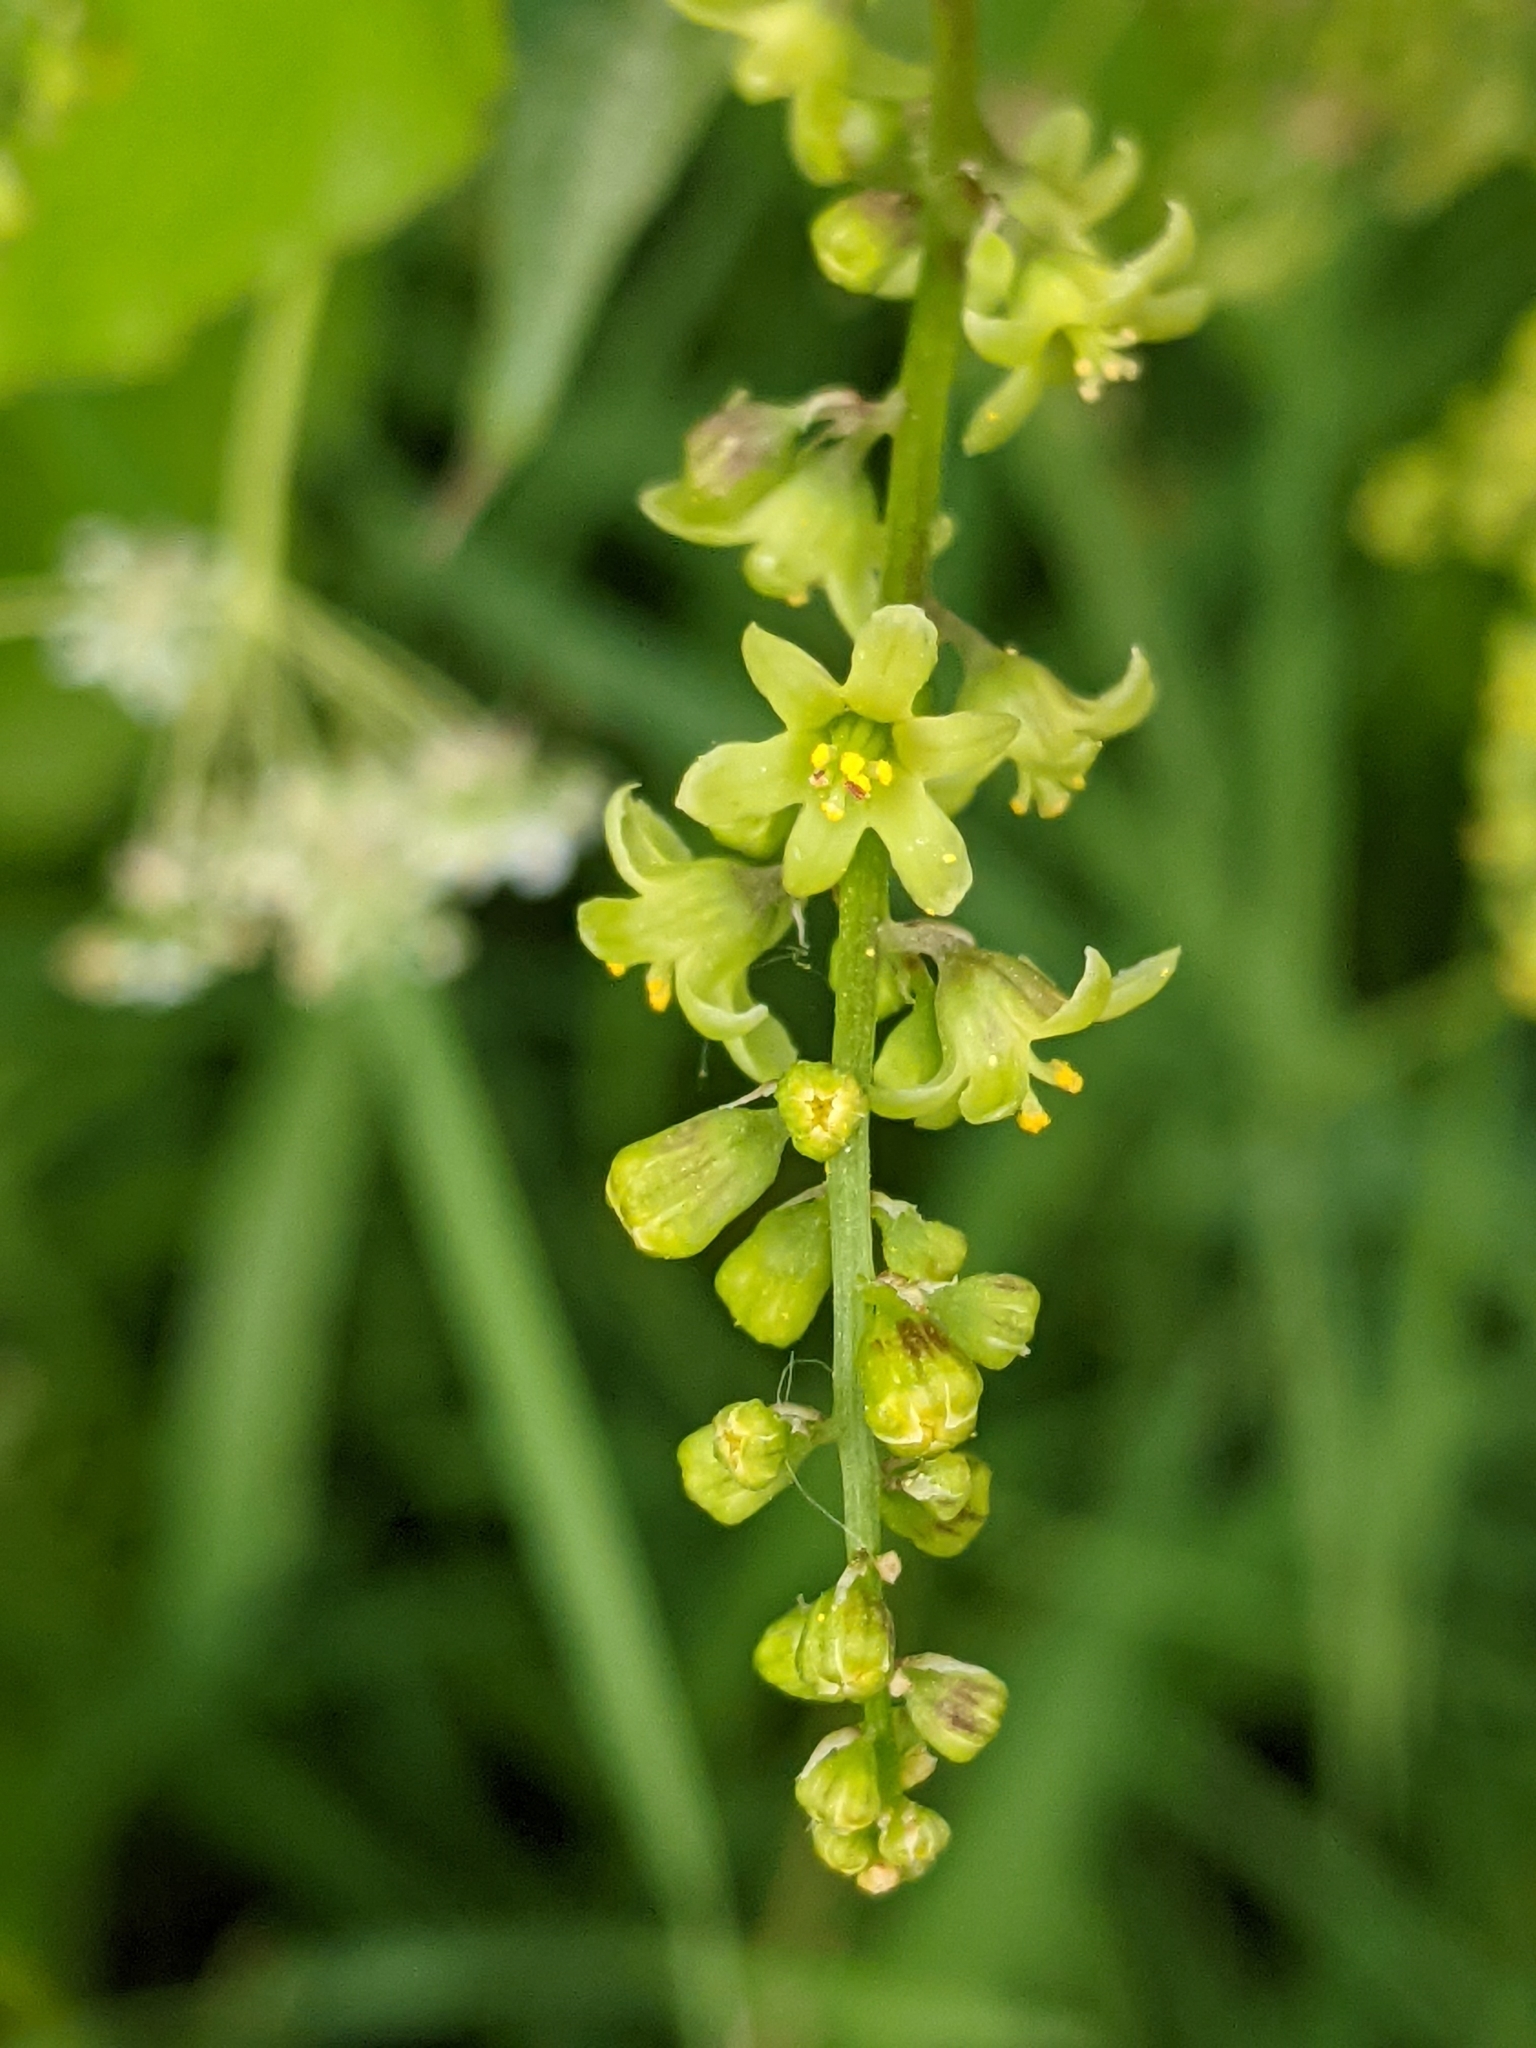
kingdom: Plantae
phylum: Tracheophyta
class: Liliopsida
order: Dioscoreales
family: Dioscoreaceae
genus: Dioscorea
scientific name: Dioscorea communis
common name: Black-bindweed
